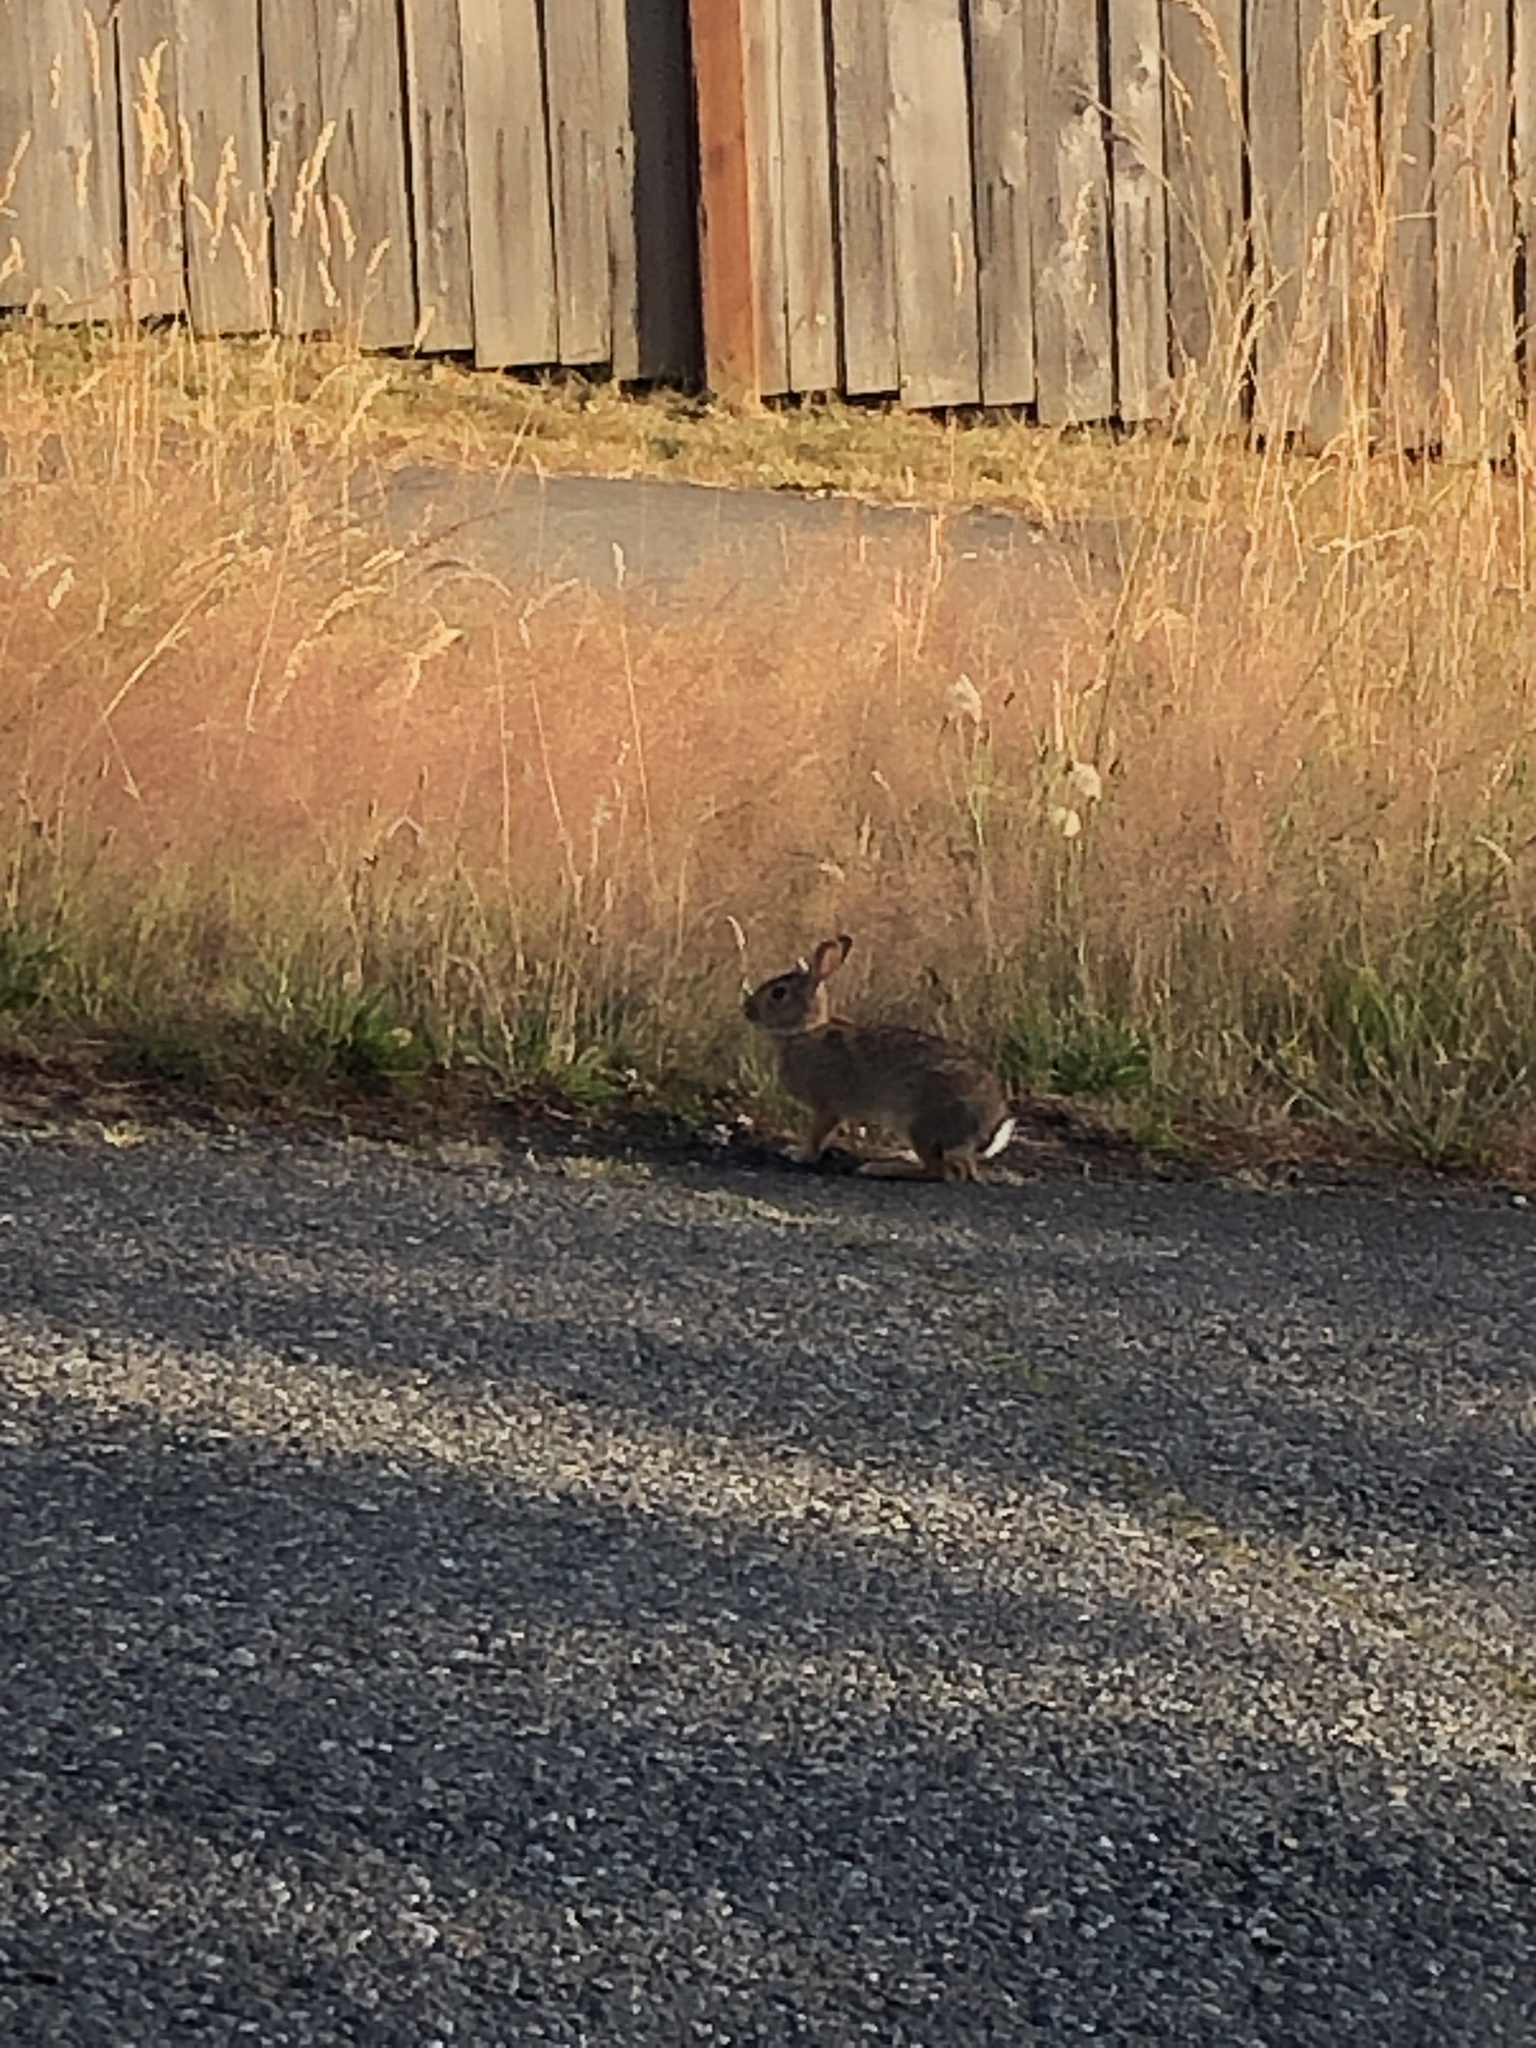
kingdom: Animalia
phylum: Chordata
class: Mammalia
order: Lagomorpha
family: Leporidae
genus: Sylvilagus
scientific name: Sylvilagus floridanus
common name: Eastern cottontail
